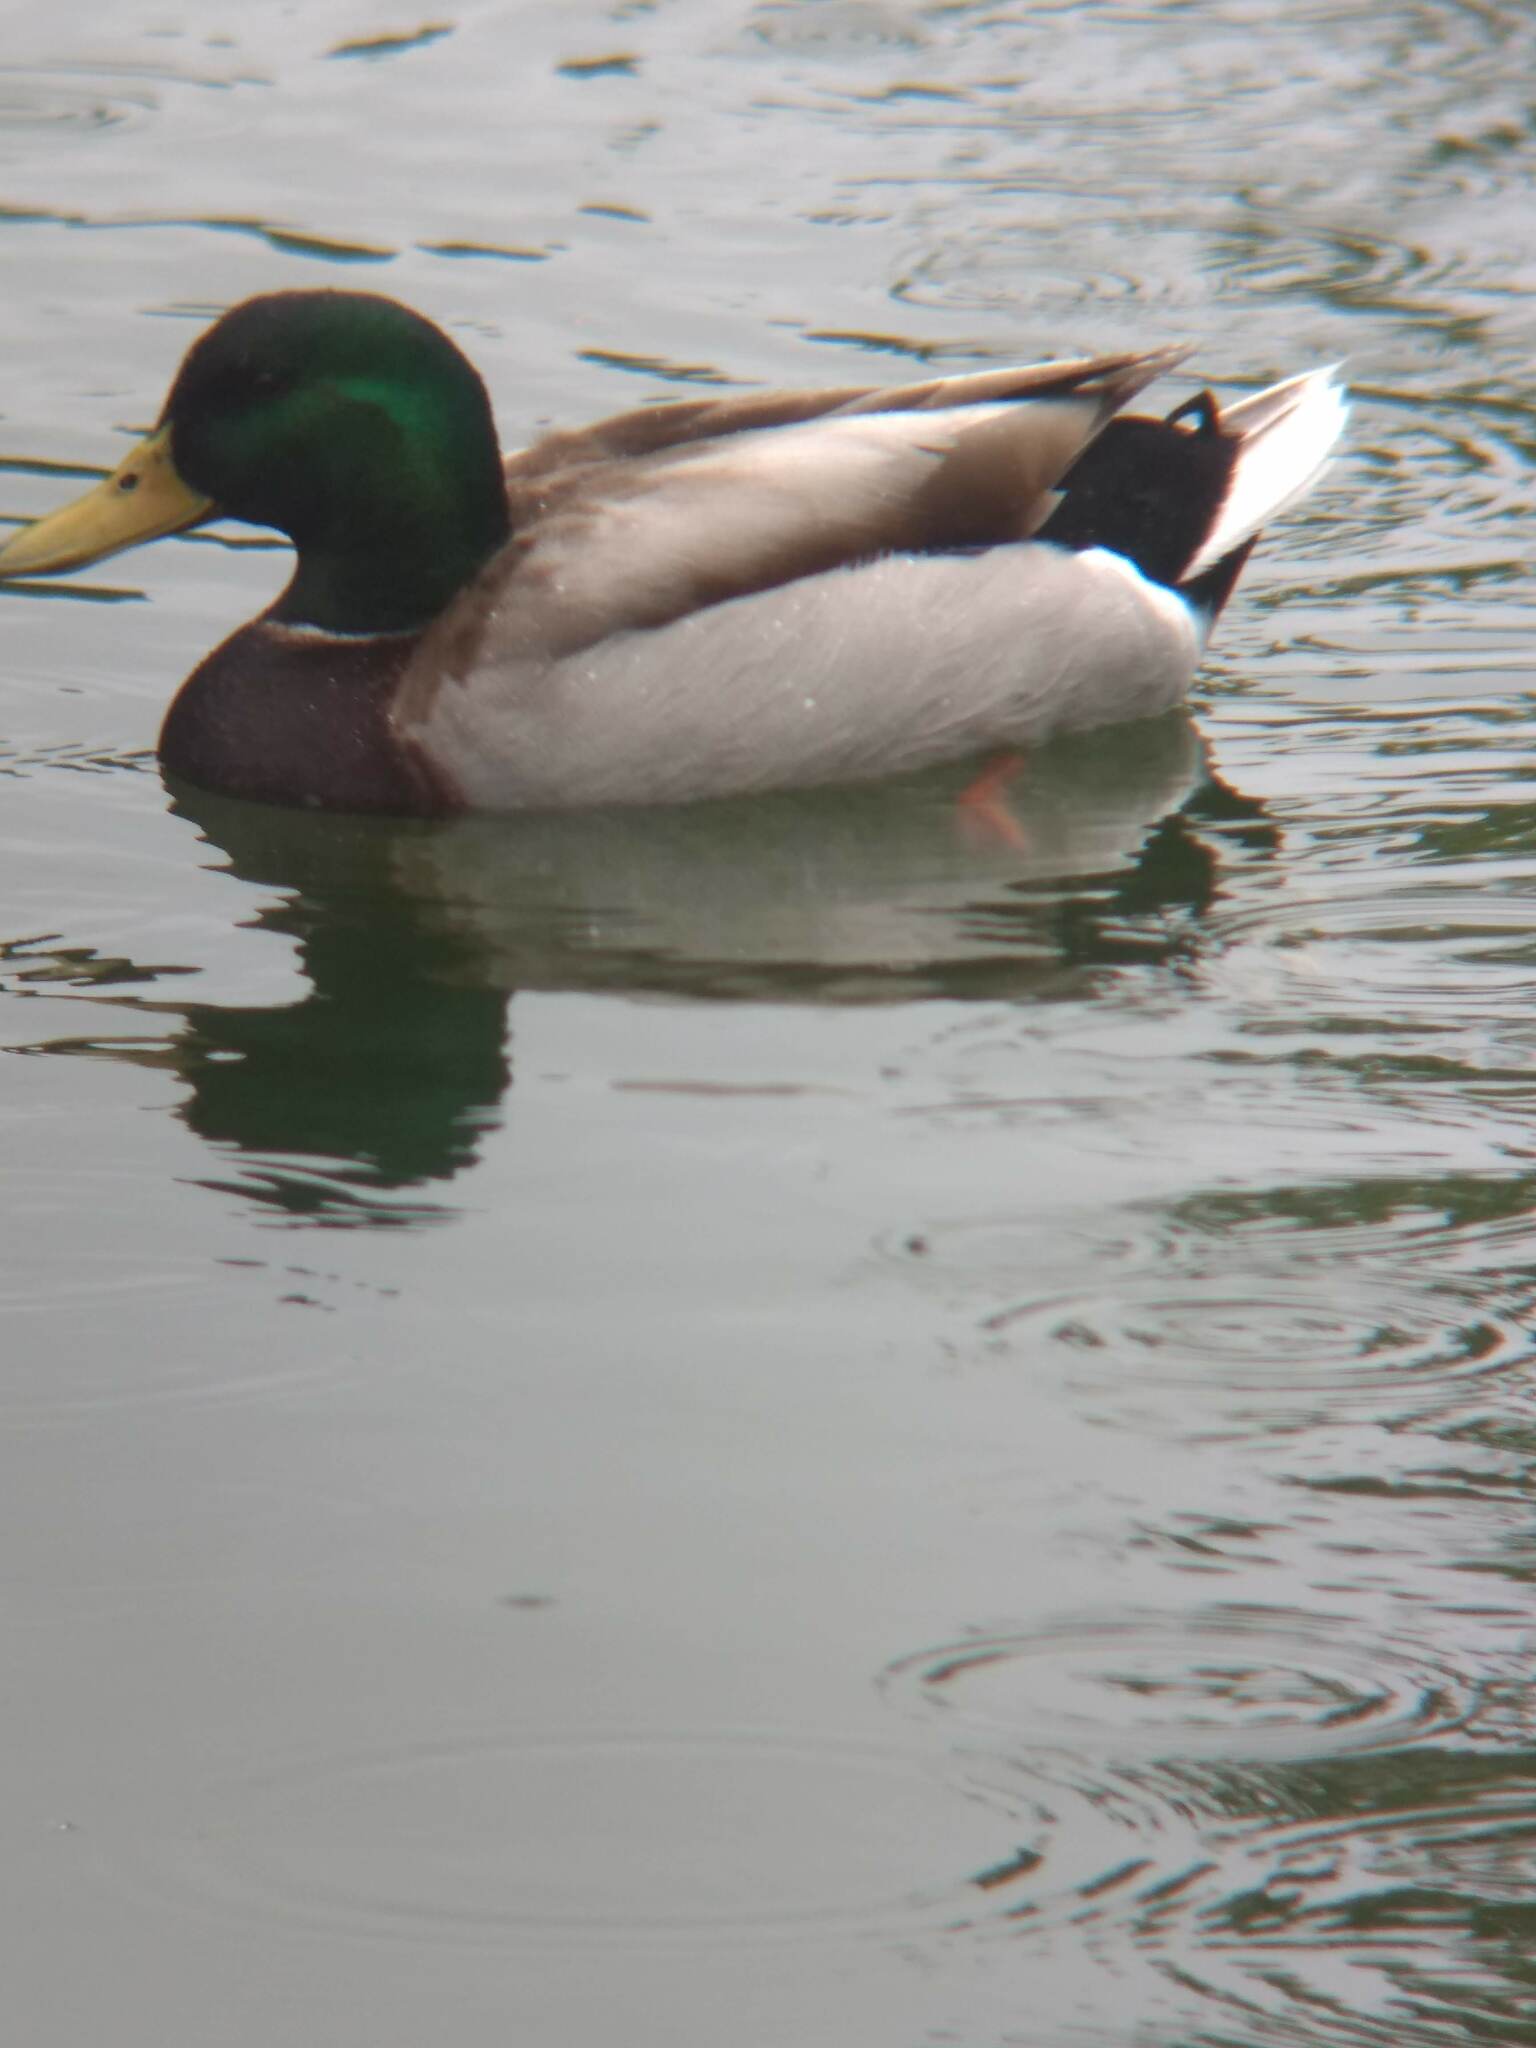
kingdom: Animalia
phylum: Chordata
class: Aves
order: Anseriformes
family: Anatidae
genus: Anas
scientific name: Anas platyrhynchos
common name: Mallard
